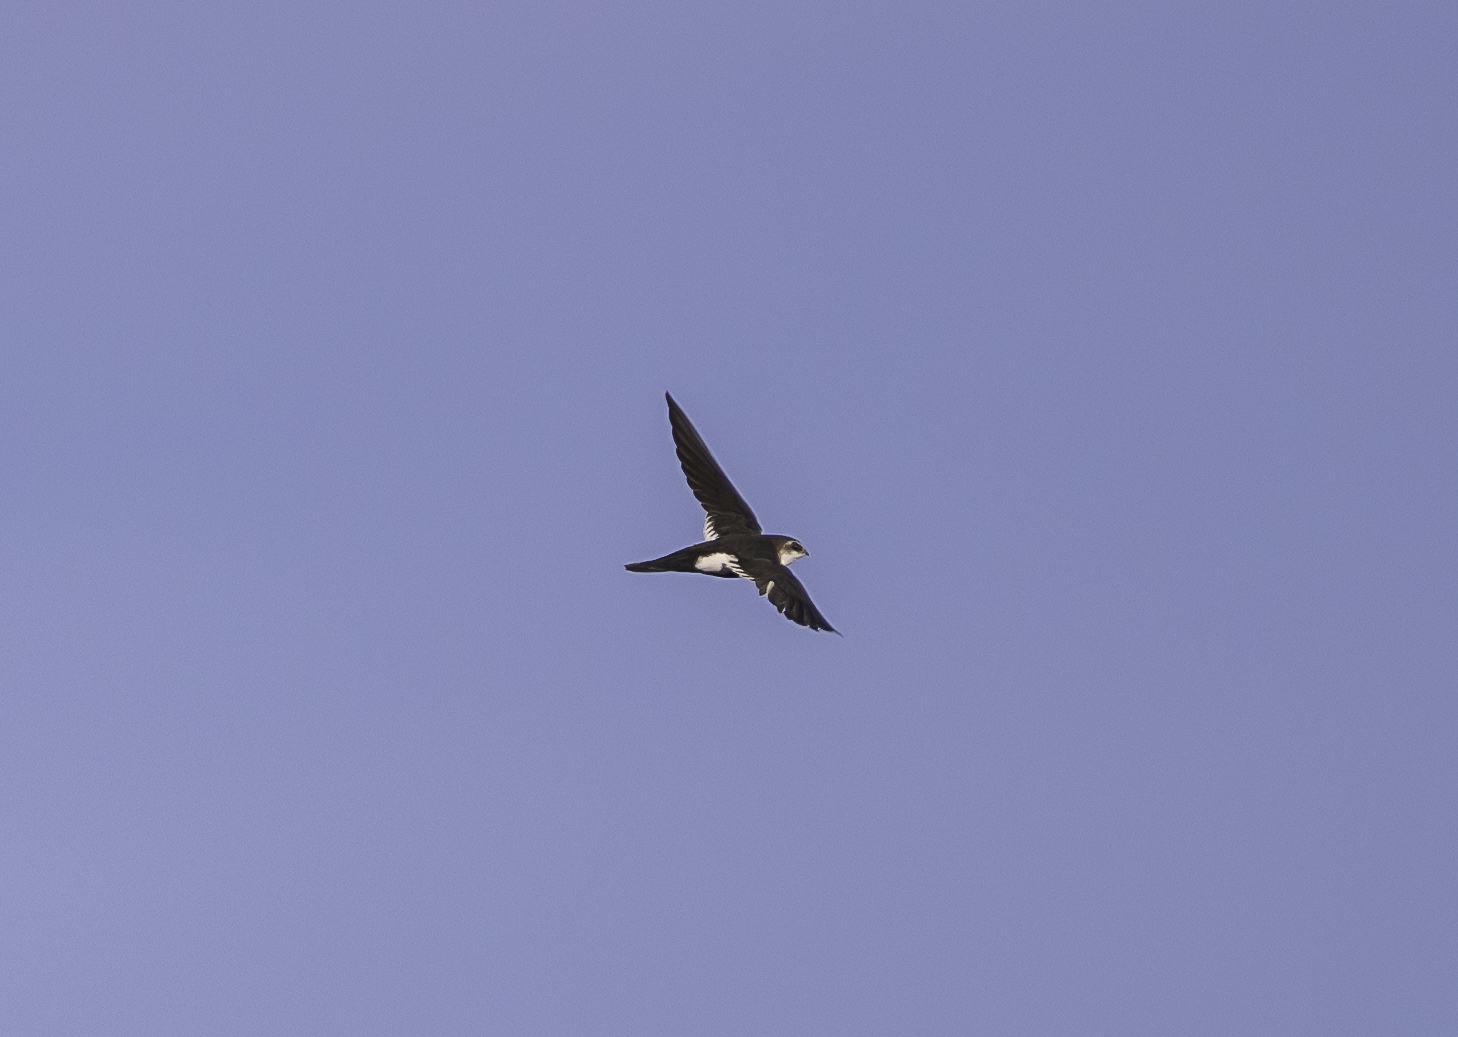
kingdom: Animalia
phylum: Chordata
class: Aves
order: Apodiformes
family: Apodidae
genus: Aeronautes
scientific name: Aeronautes saxatalis
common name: White-throated swift
